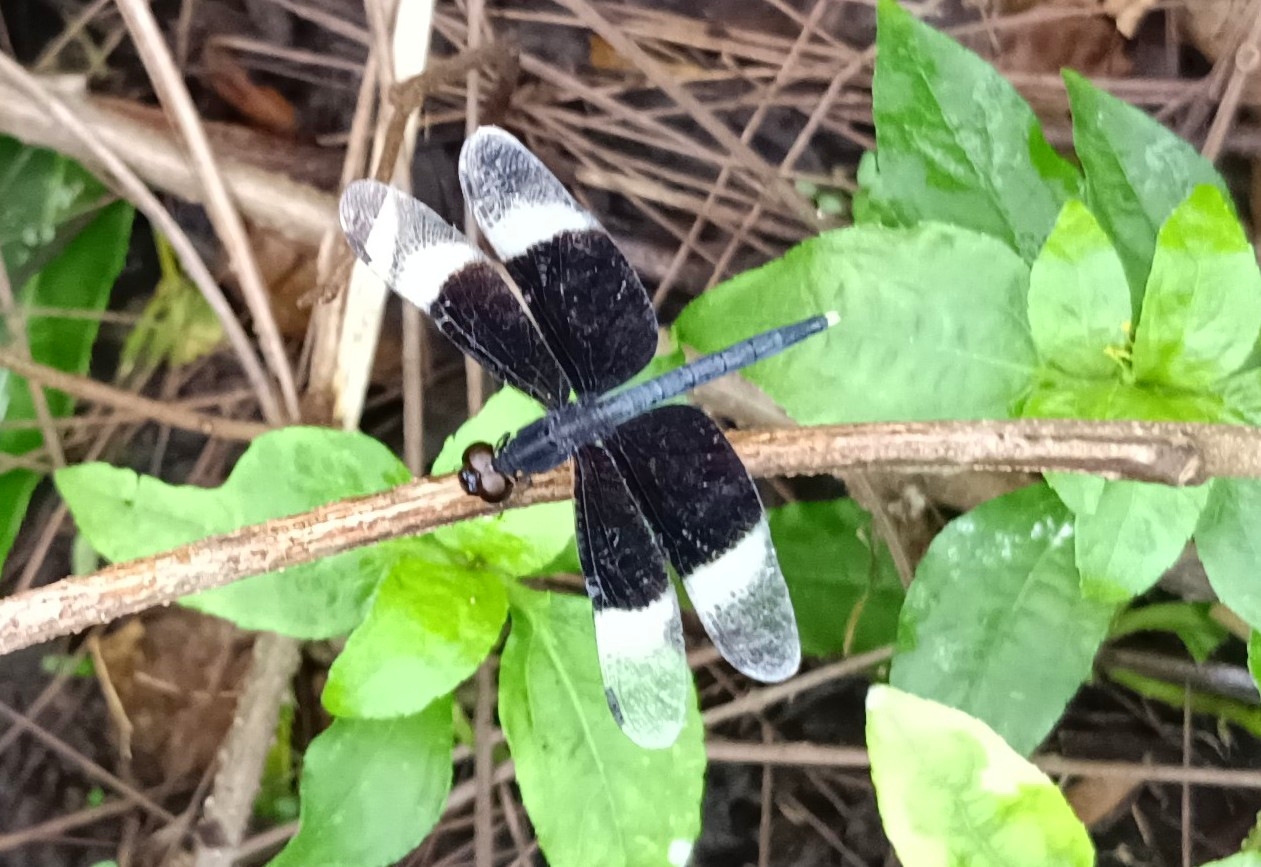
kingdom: Animalia
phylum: Arthropoda
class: Insecta
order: Odonata
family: Libellulidae
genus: Neurothemis
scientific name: Neurothemis tullia
